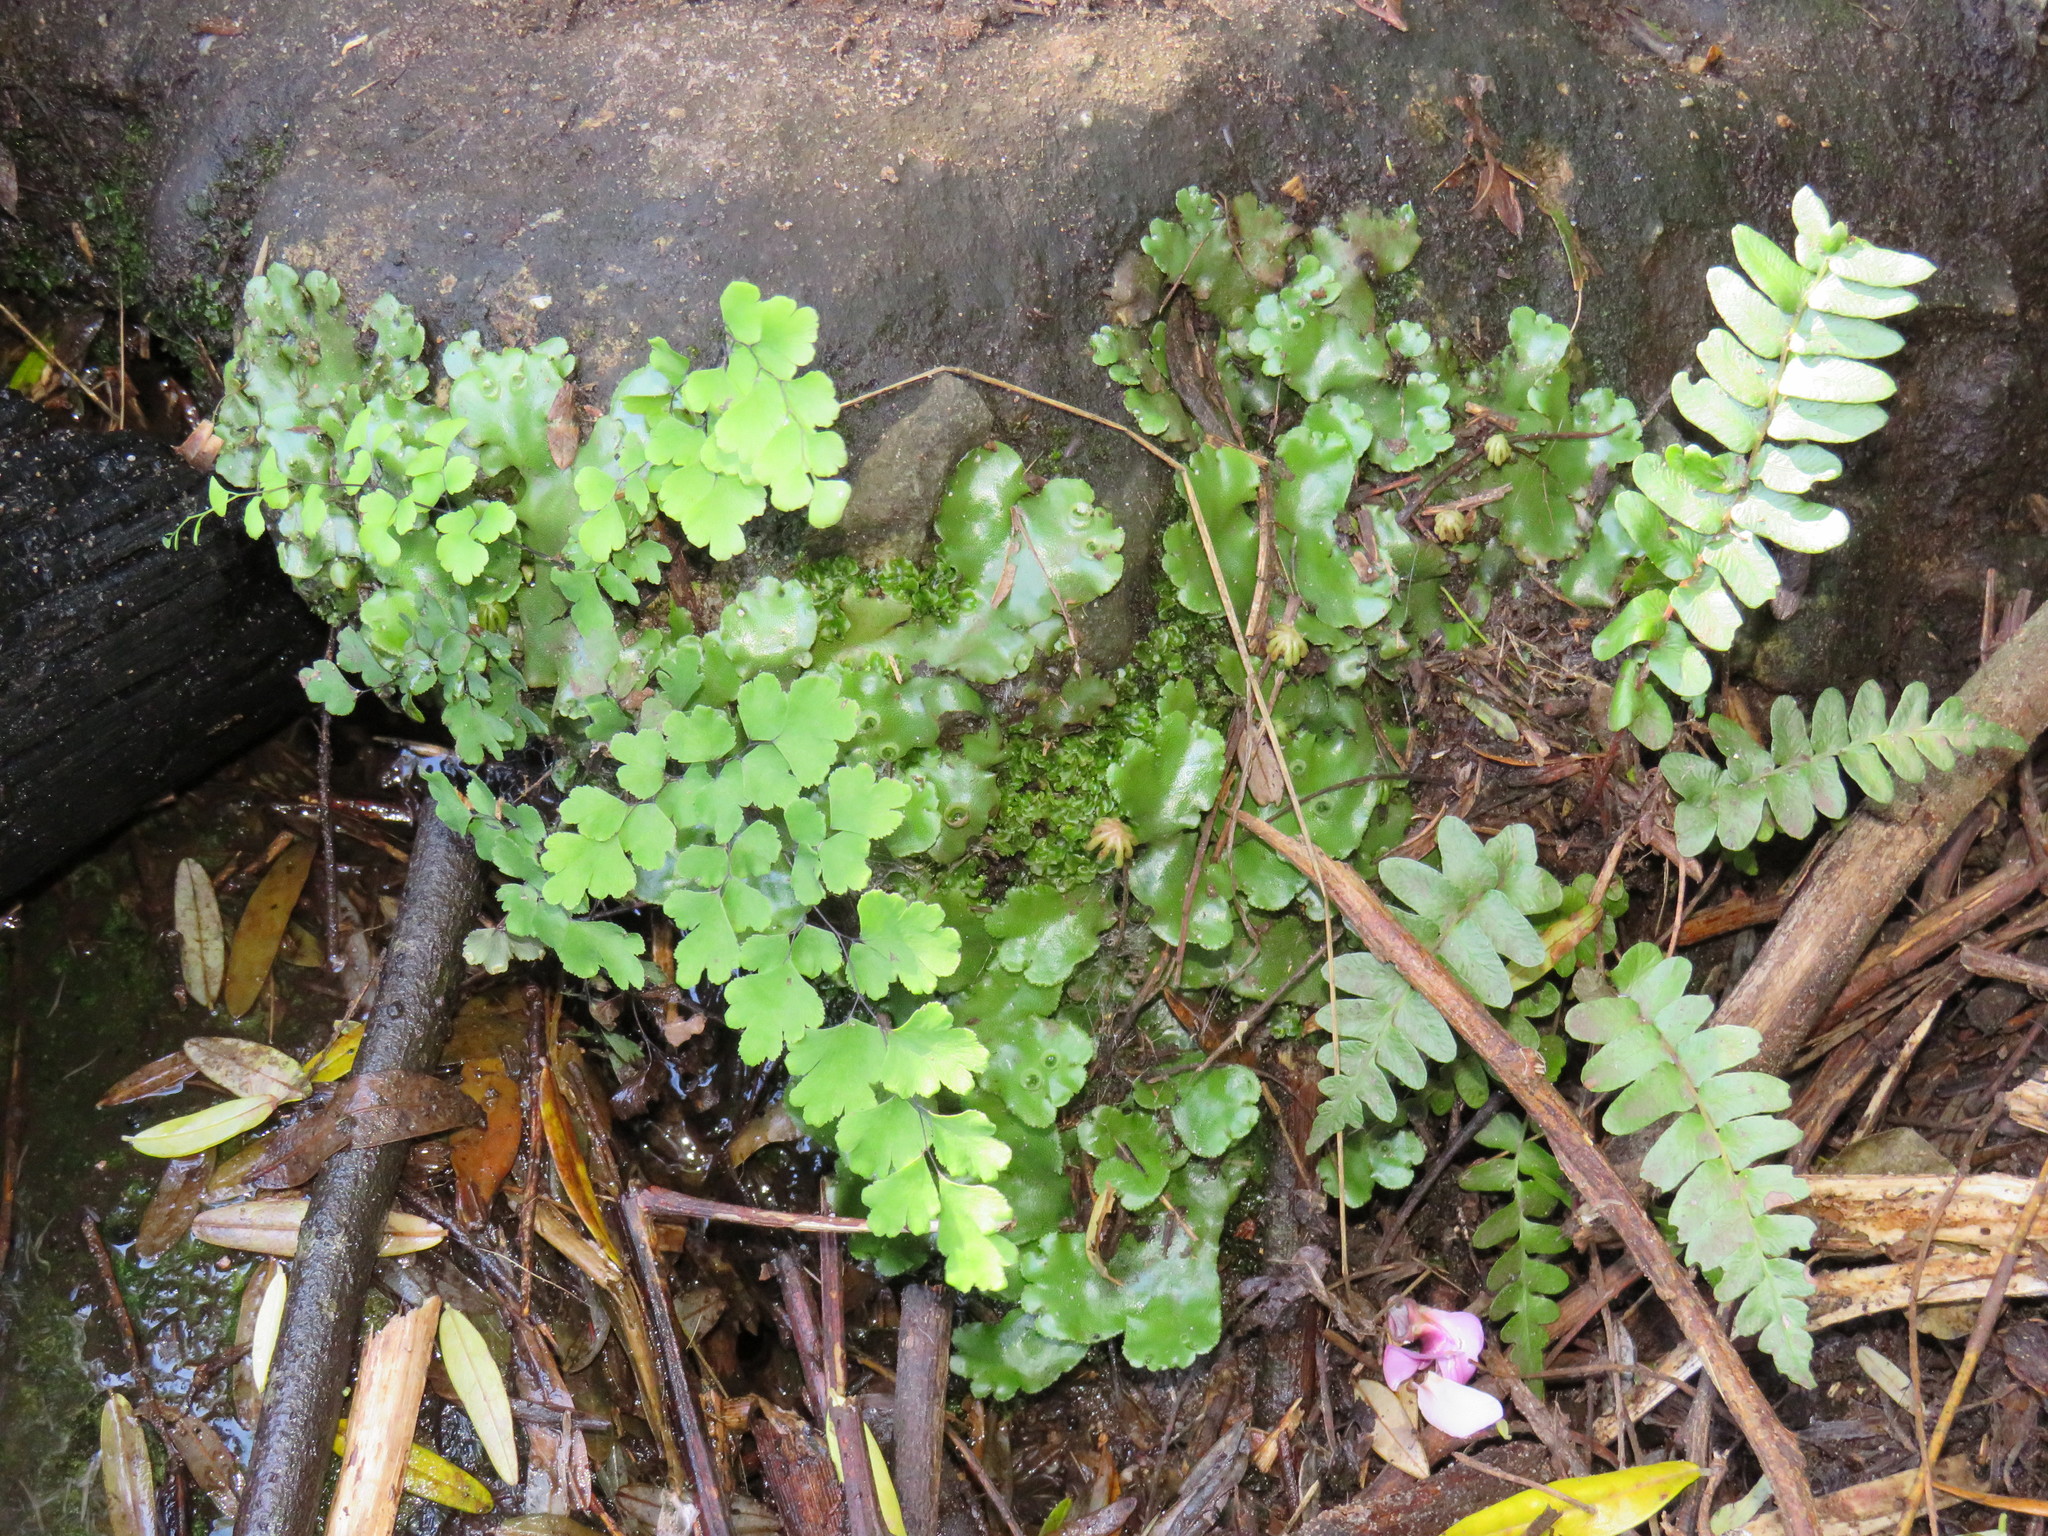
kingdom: Plantae
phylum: Tracheophyta
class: Polypodiopsida
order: Polypodiales
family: Pteridaceae
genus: Adiantum
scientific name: Adiantum capillus-veneris
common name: Maidenhair fern
